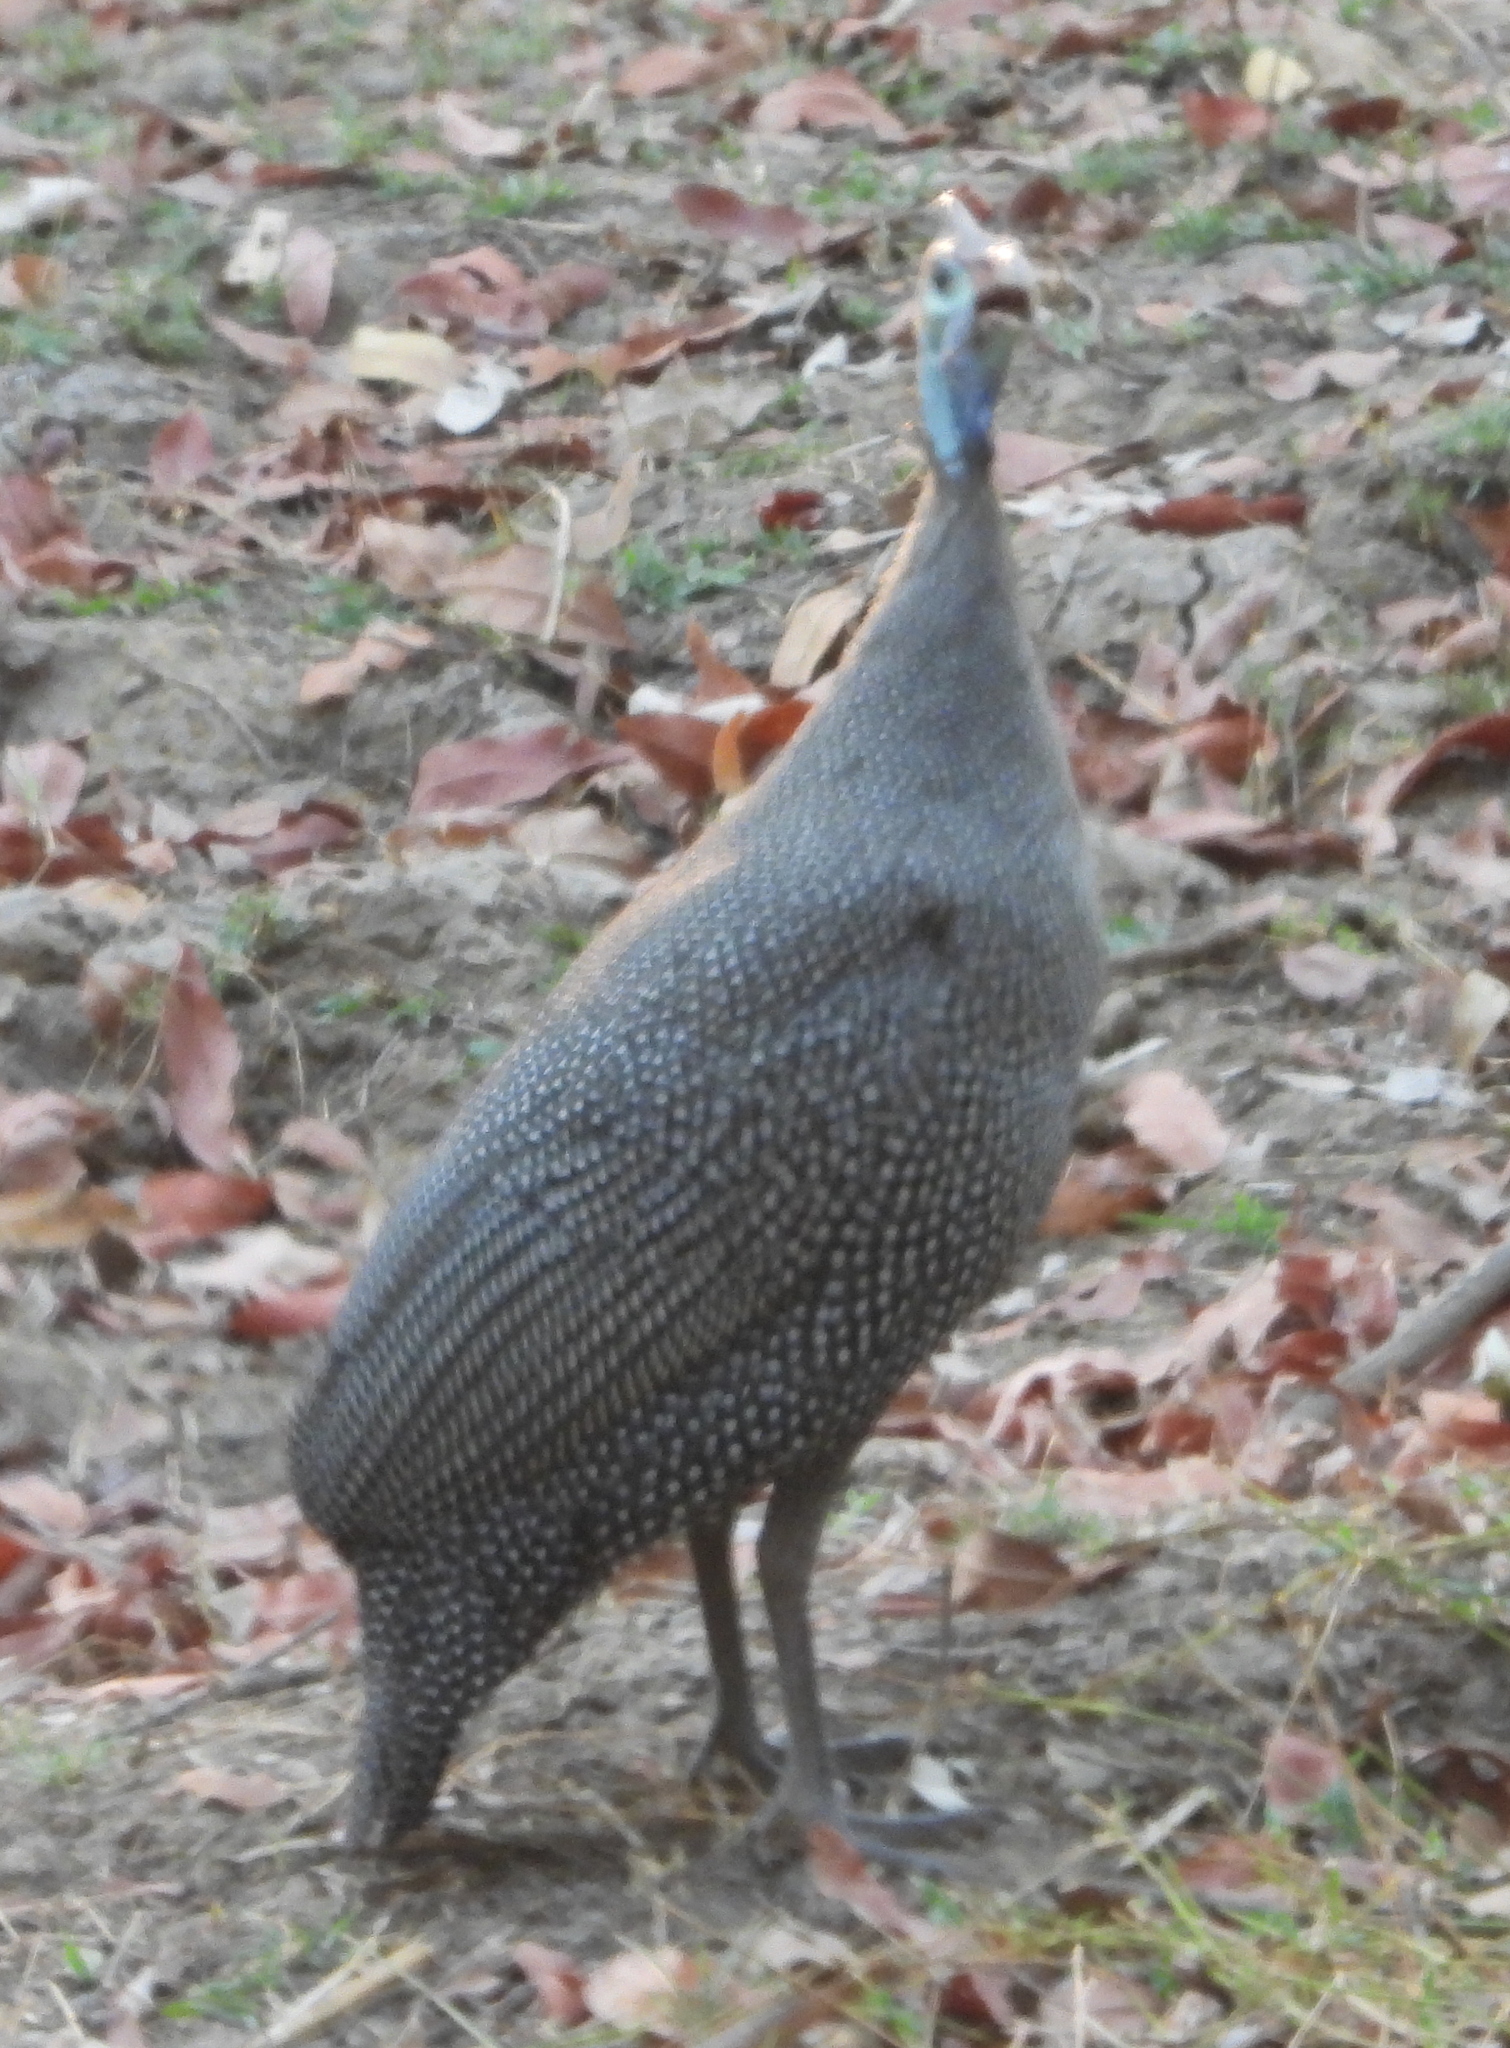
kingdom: Animalia
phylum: Chordata
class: Aves
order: Galliformes
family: Numididae
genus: Numida
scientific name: Numida meleagris
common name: Helmeted guineafowl
